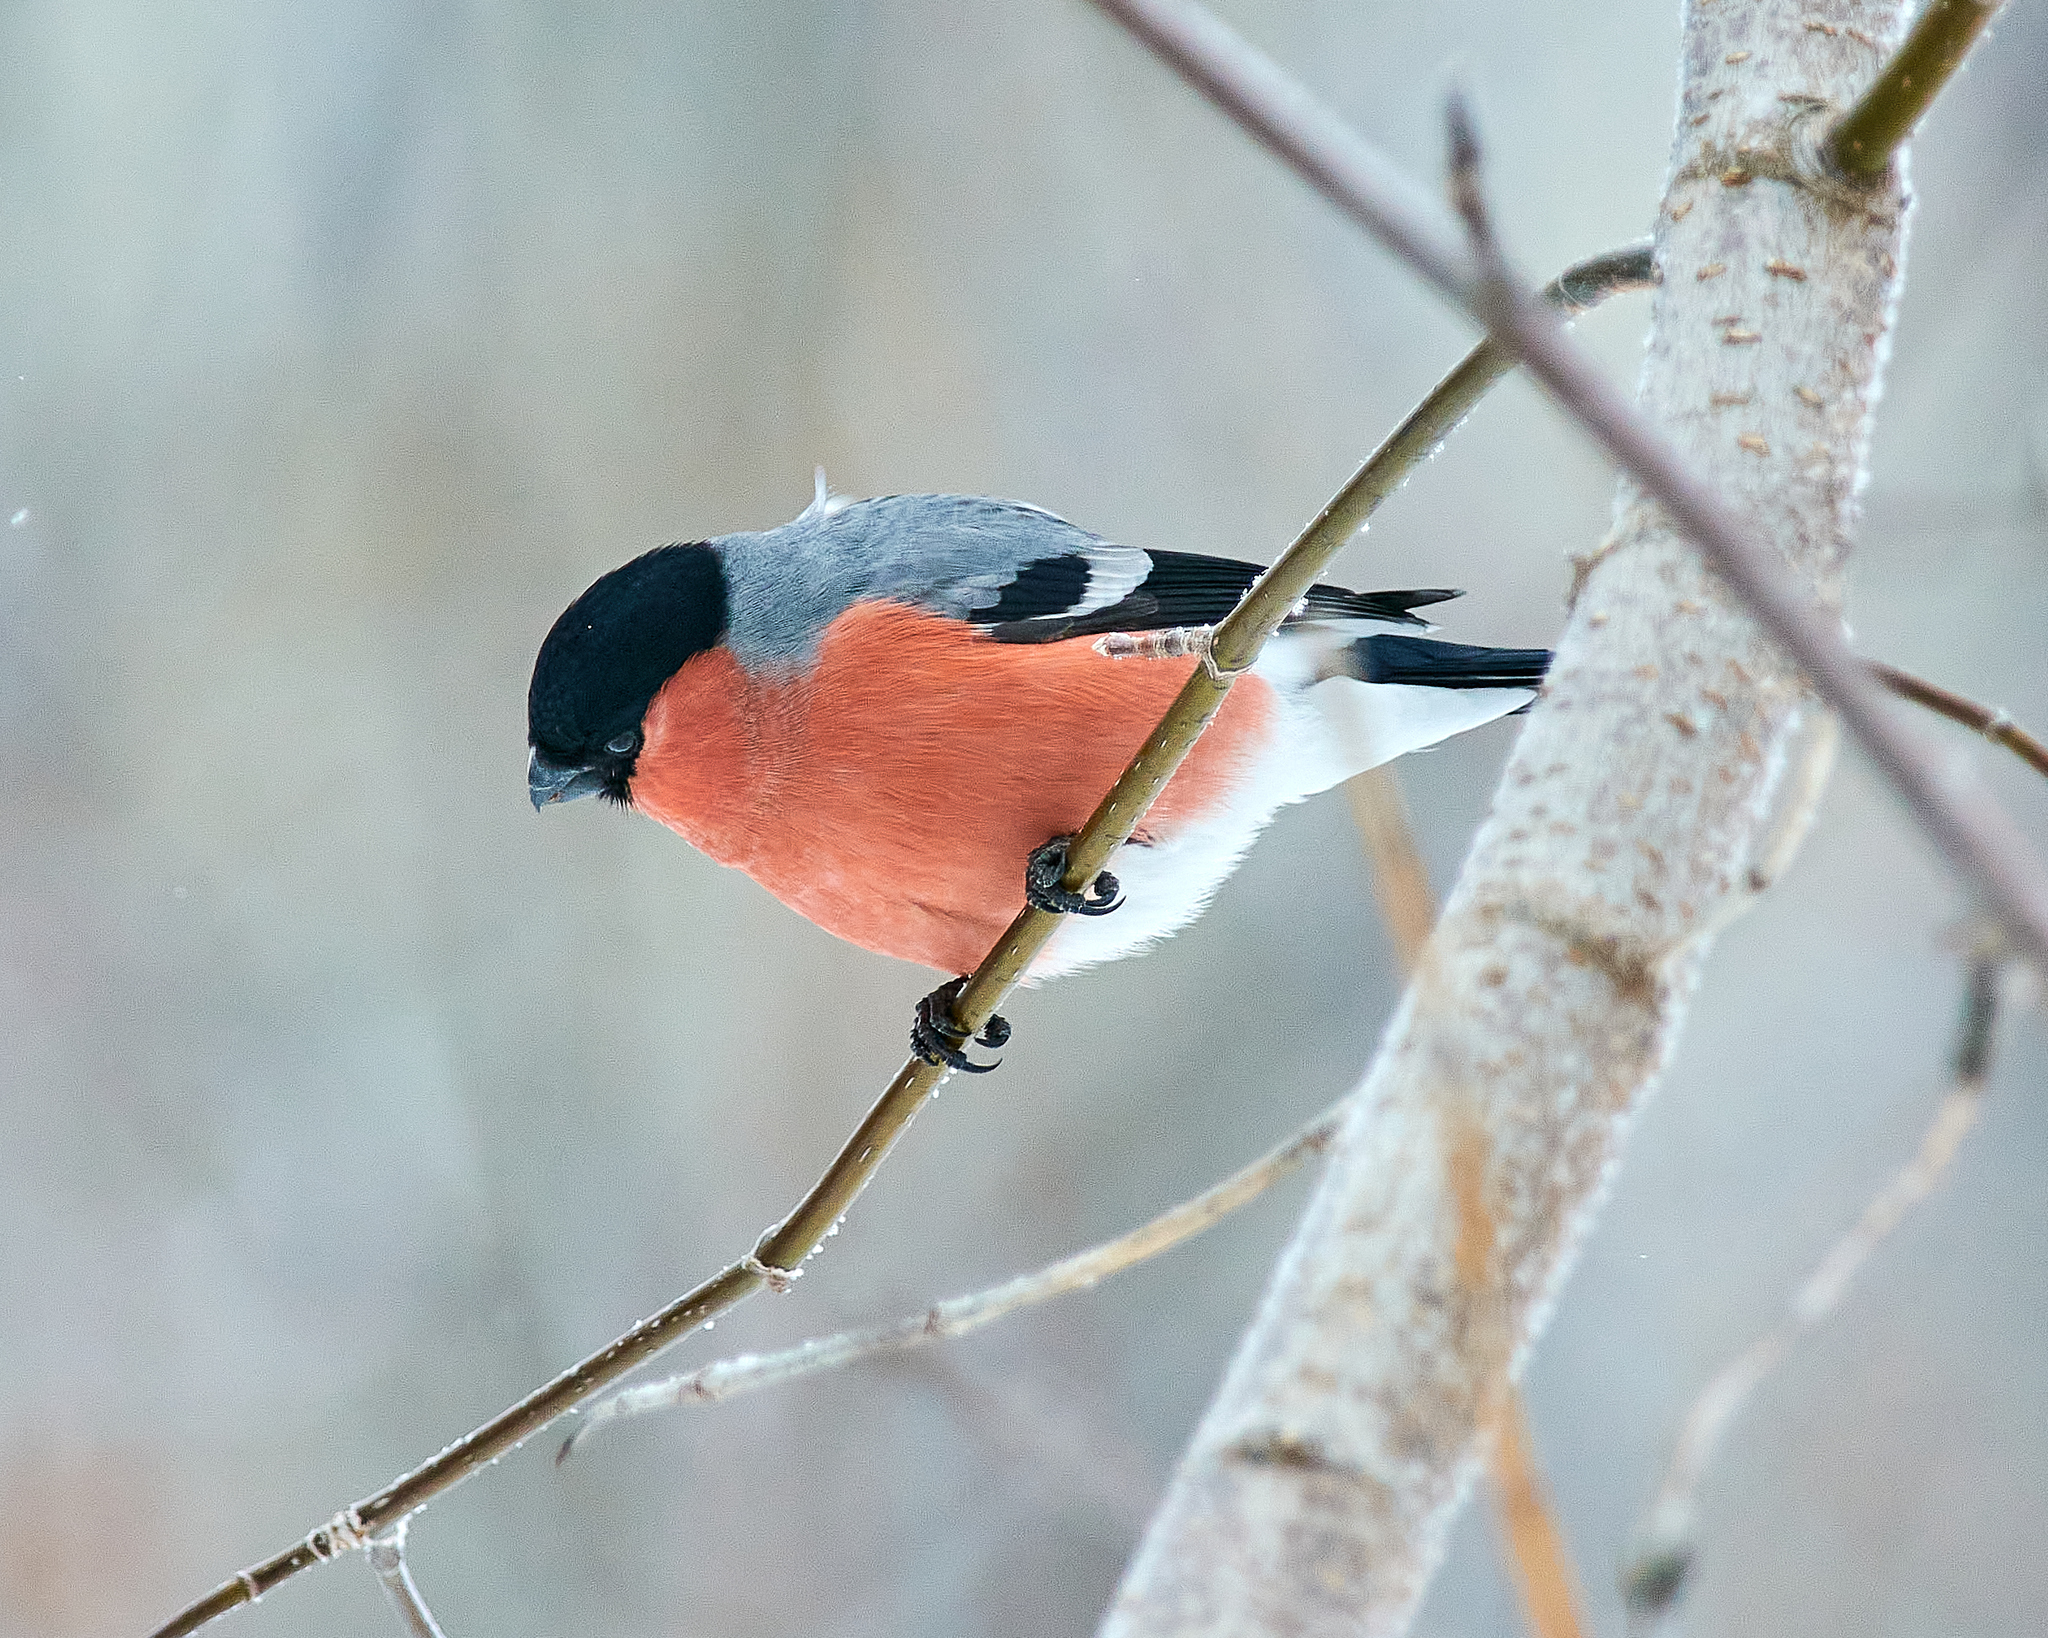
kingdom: Animalia
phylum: Chordata
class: Aves
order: Passeriformes
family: Fringillidae
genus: Pyrrhula
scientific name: Pyrrhula pyrrhula
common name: Eurasian bullfinch
